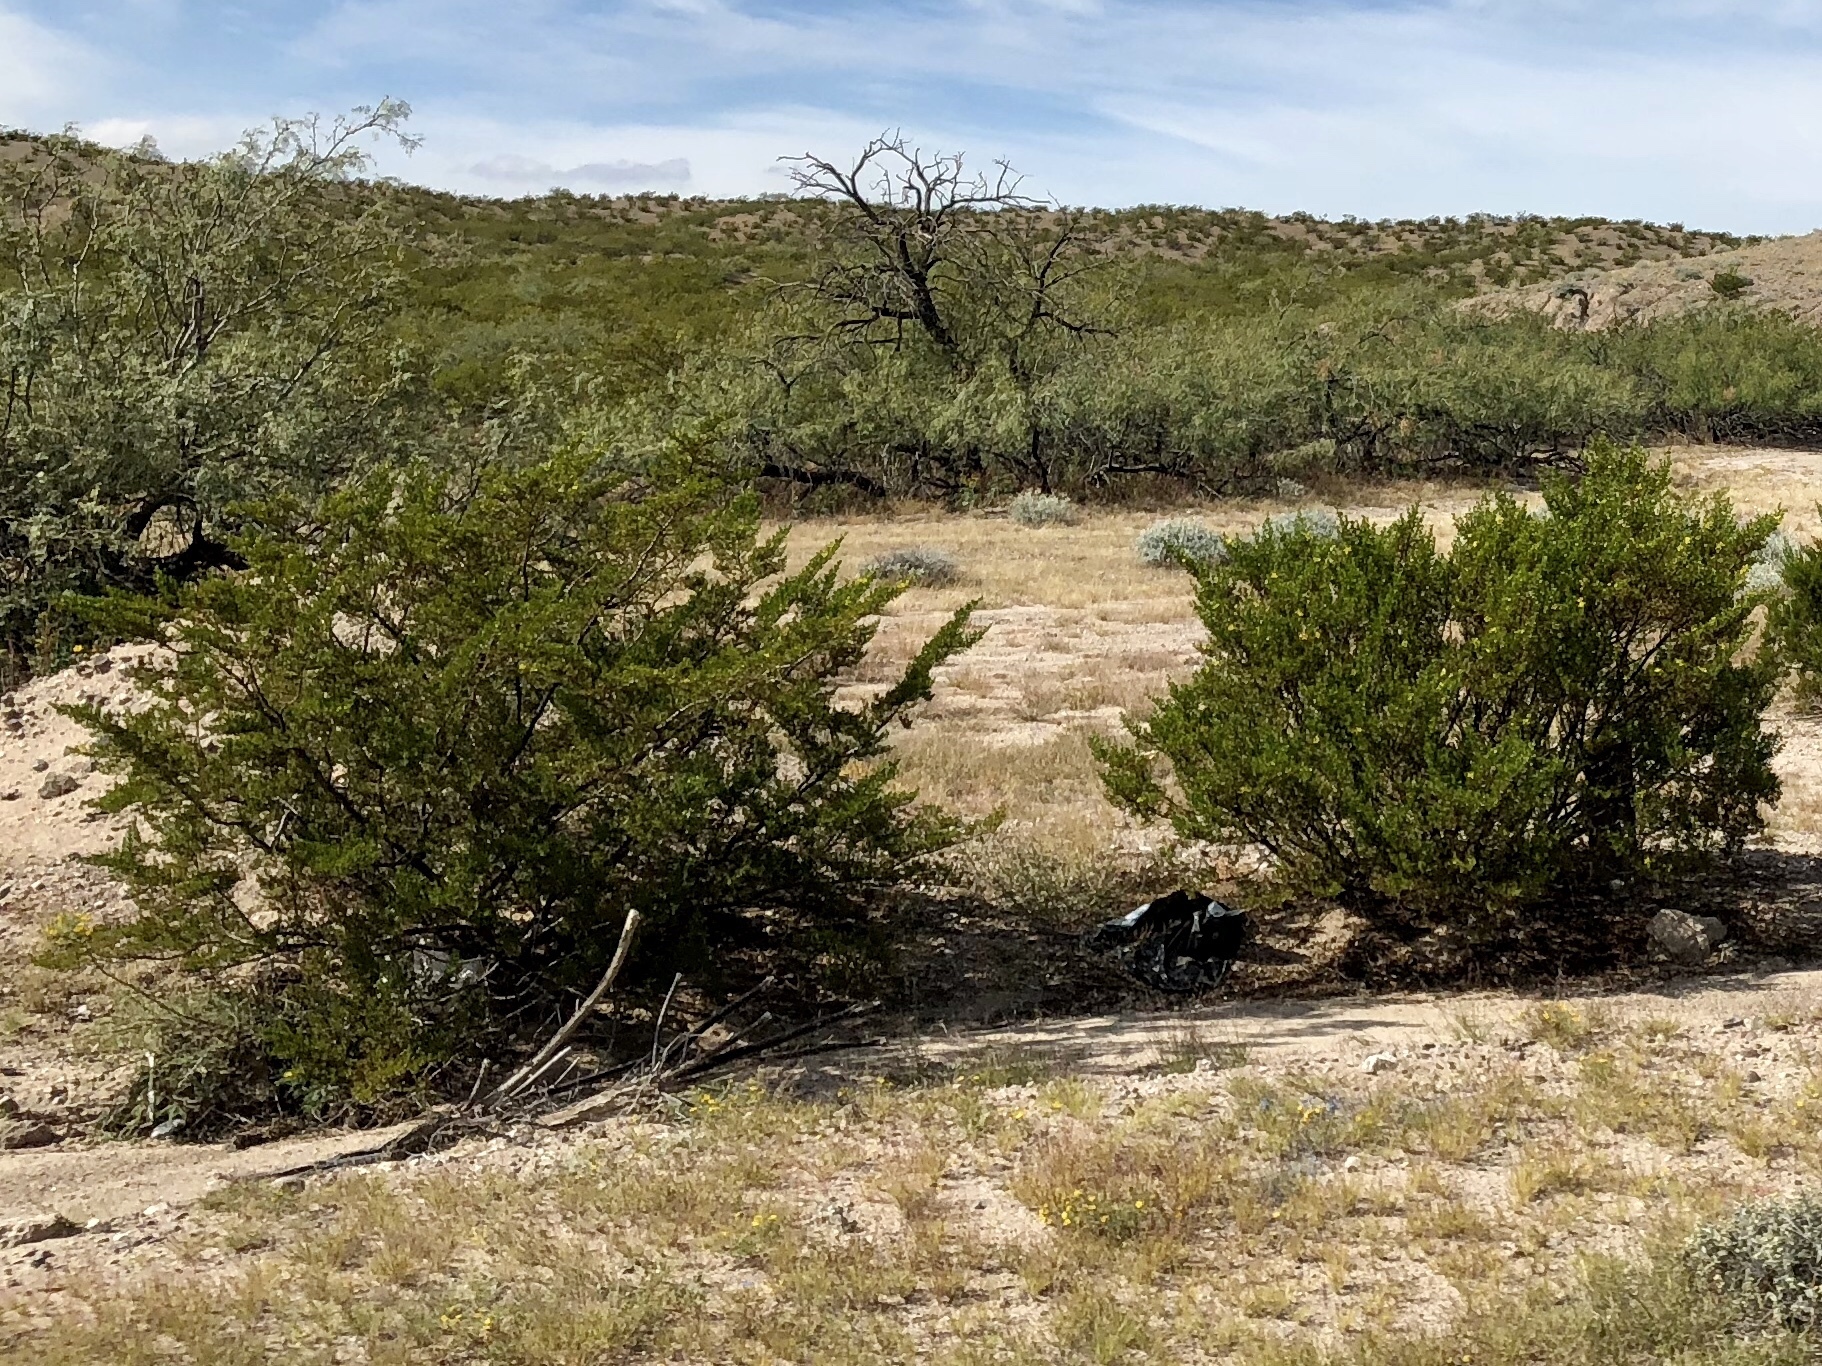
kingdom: Plantae
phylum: Tracheophyta
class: Magnoliopsida
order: Zygophyllales
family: Zygophyllaceae
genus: Larrea
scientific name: Larrea tridentata
